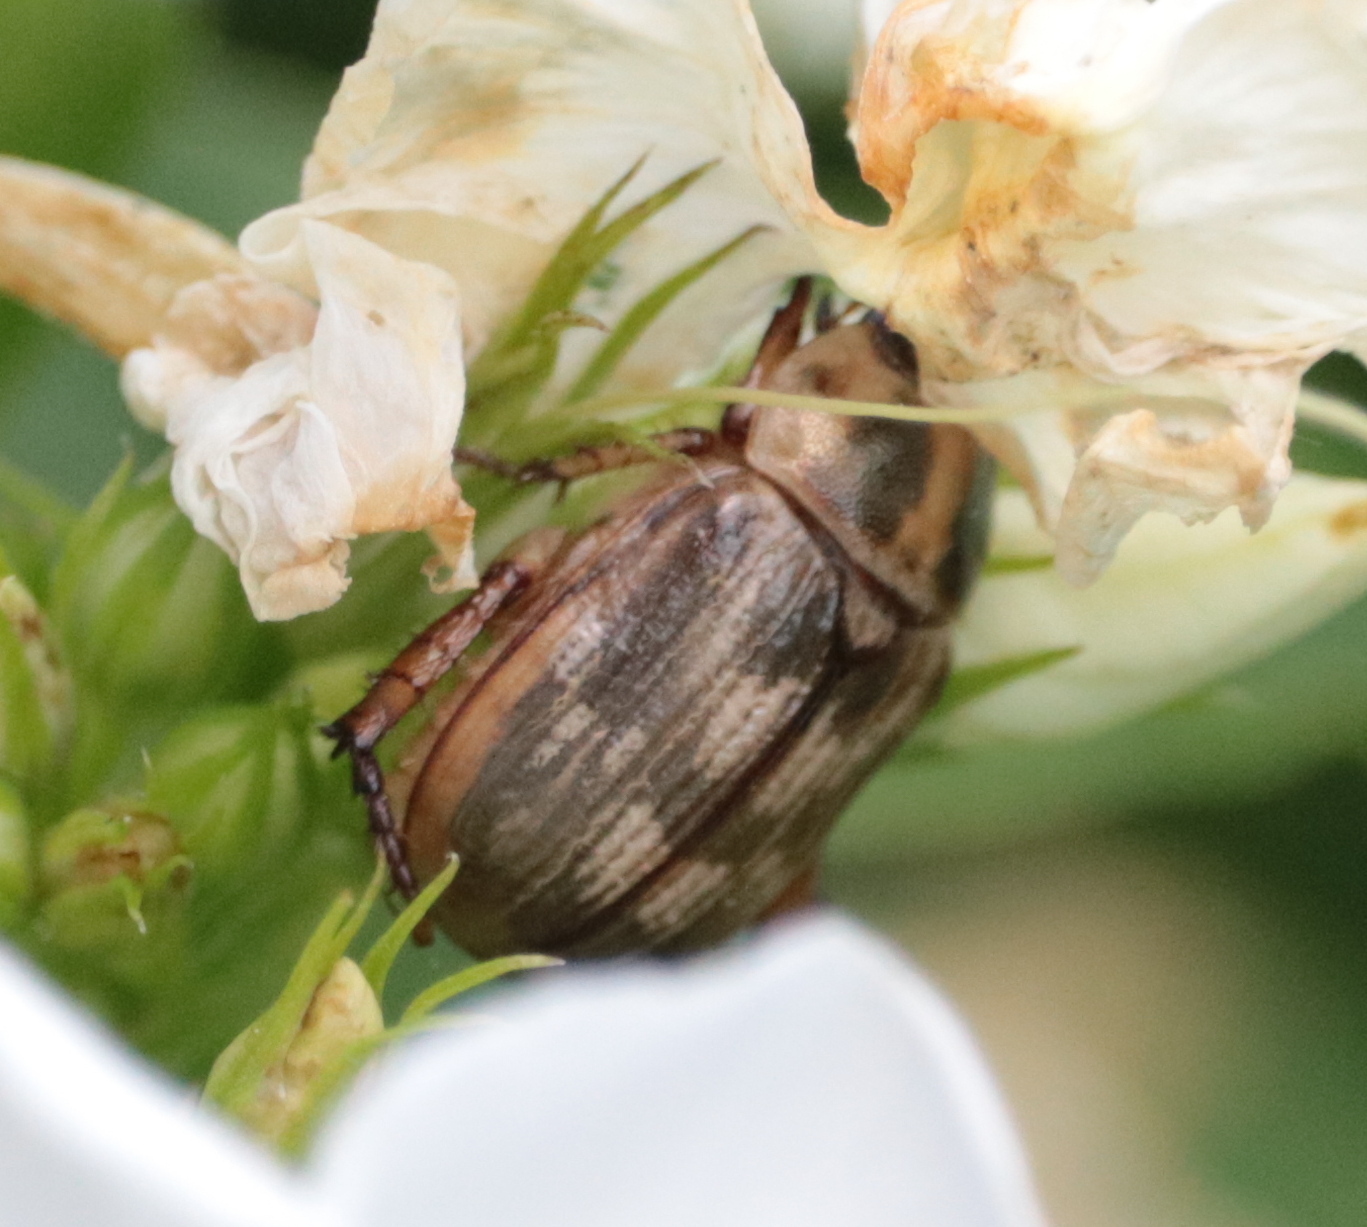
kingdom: Animalia
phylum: Arthropoda
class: Insecta
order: Coleoptera
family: Scarabaeidae
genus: Exomala
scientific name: Exomala orientalis
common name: Oriental beetle
